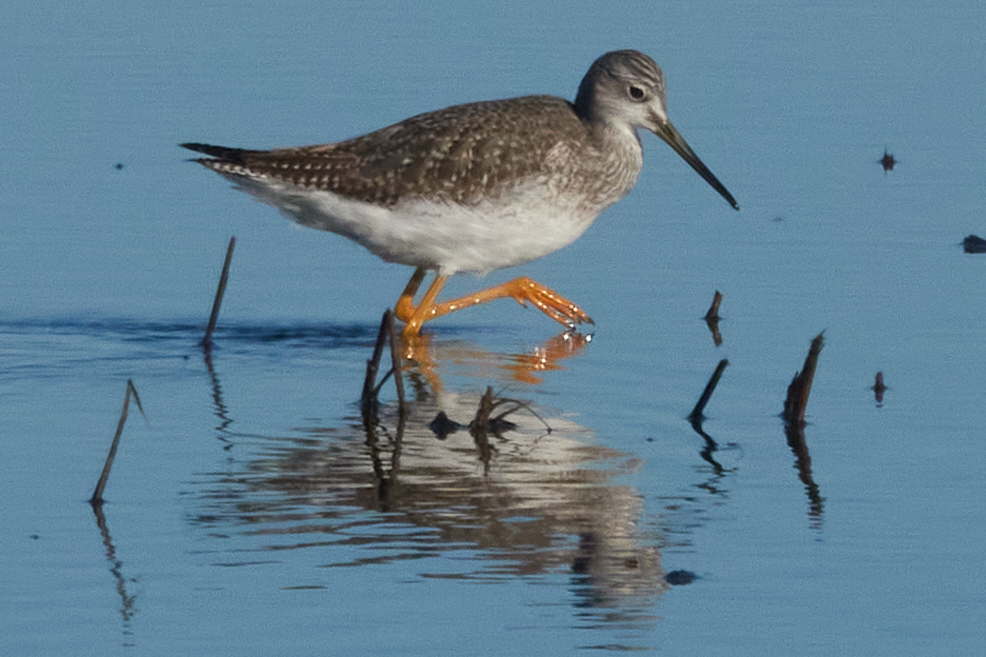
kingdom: Animalia
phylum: Chordata
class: Aves
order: Charadriiformes
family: Scolopacidae
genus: Tringa
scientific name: Tringa melanoleuca
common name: Greater yellowlegs
